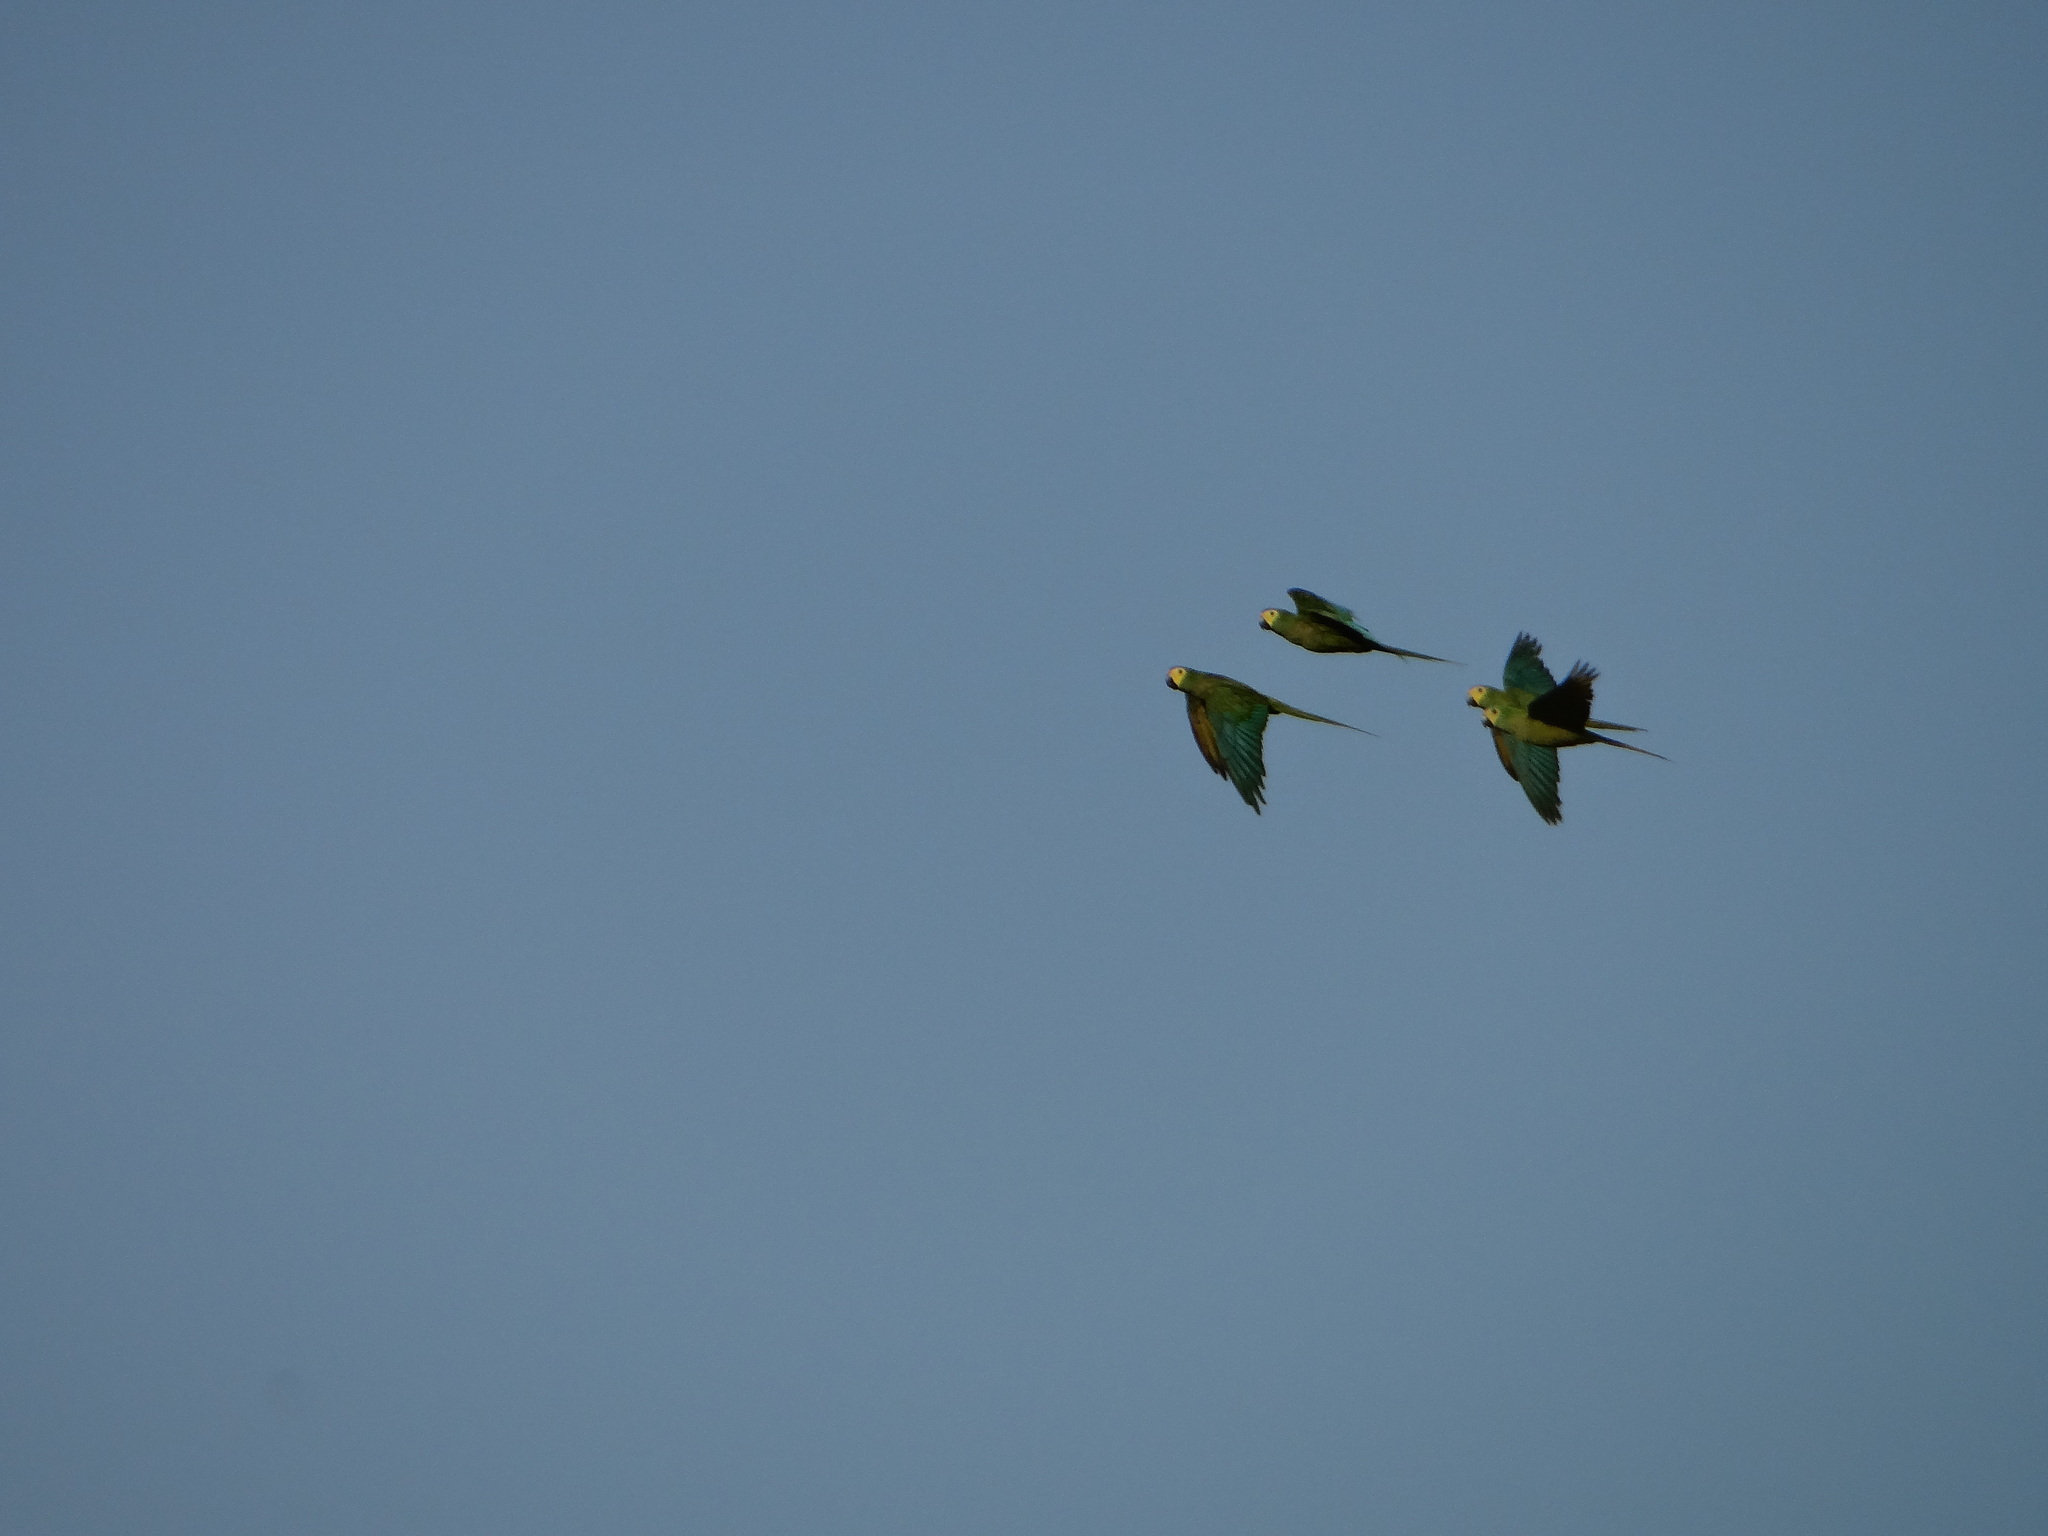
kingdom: Animalia
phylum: Chordata
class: Aves
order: Psittaciformes
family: Psittacidae
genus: Orthopsittaca
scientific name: Orthopsittaca manilata
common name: Red-bellied macaw
